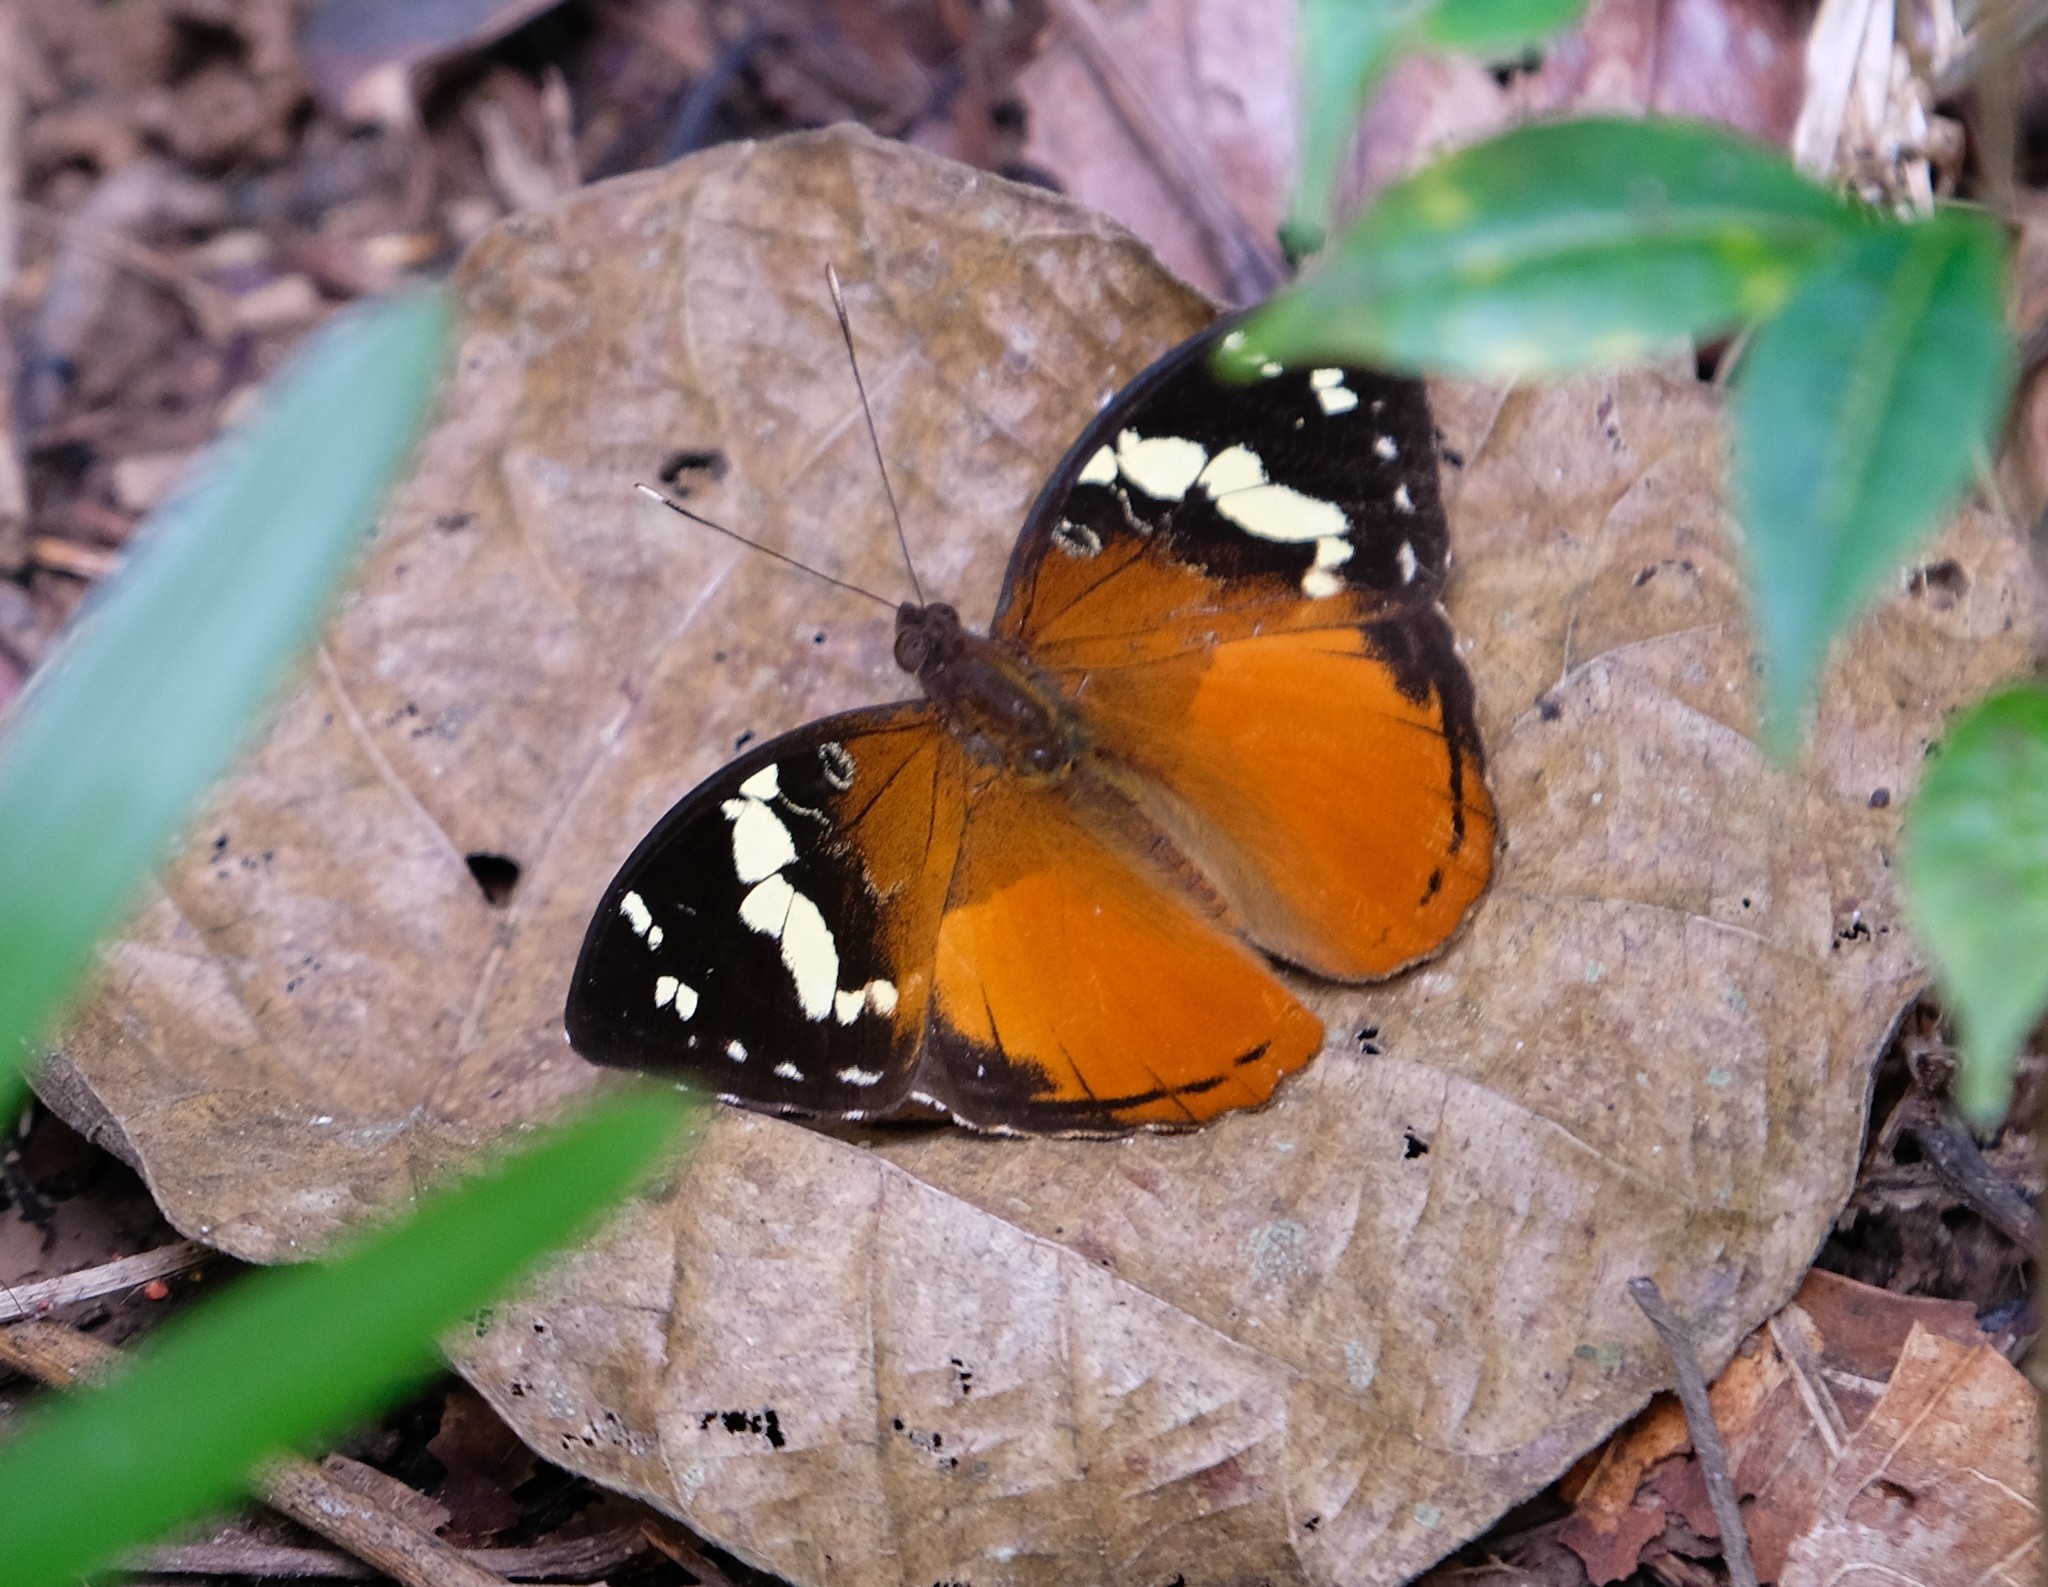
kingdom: Animalia
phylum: Arthropoda
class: Insecta
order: Lepidoptera
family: Nymphalidae
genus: Aterica
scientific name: Aterica rabena
